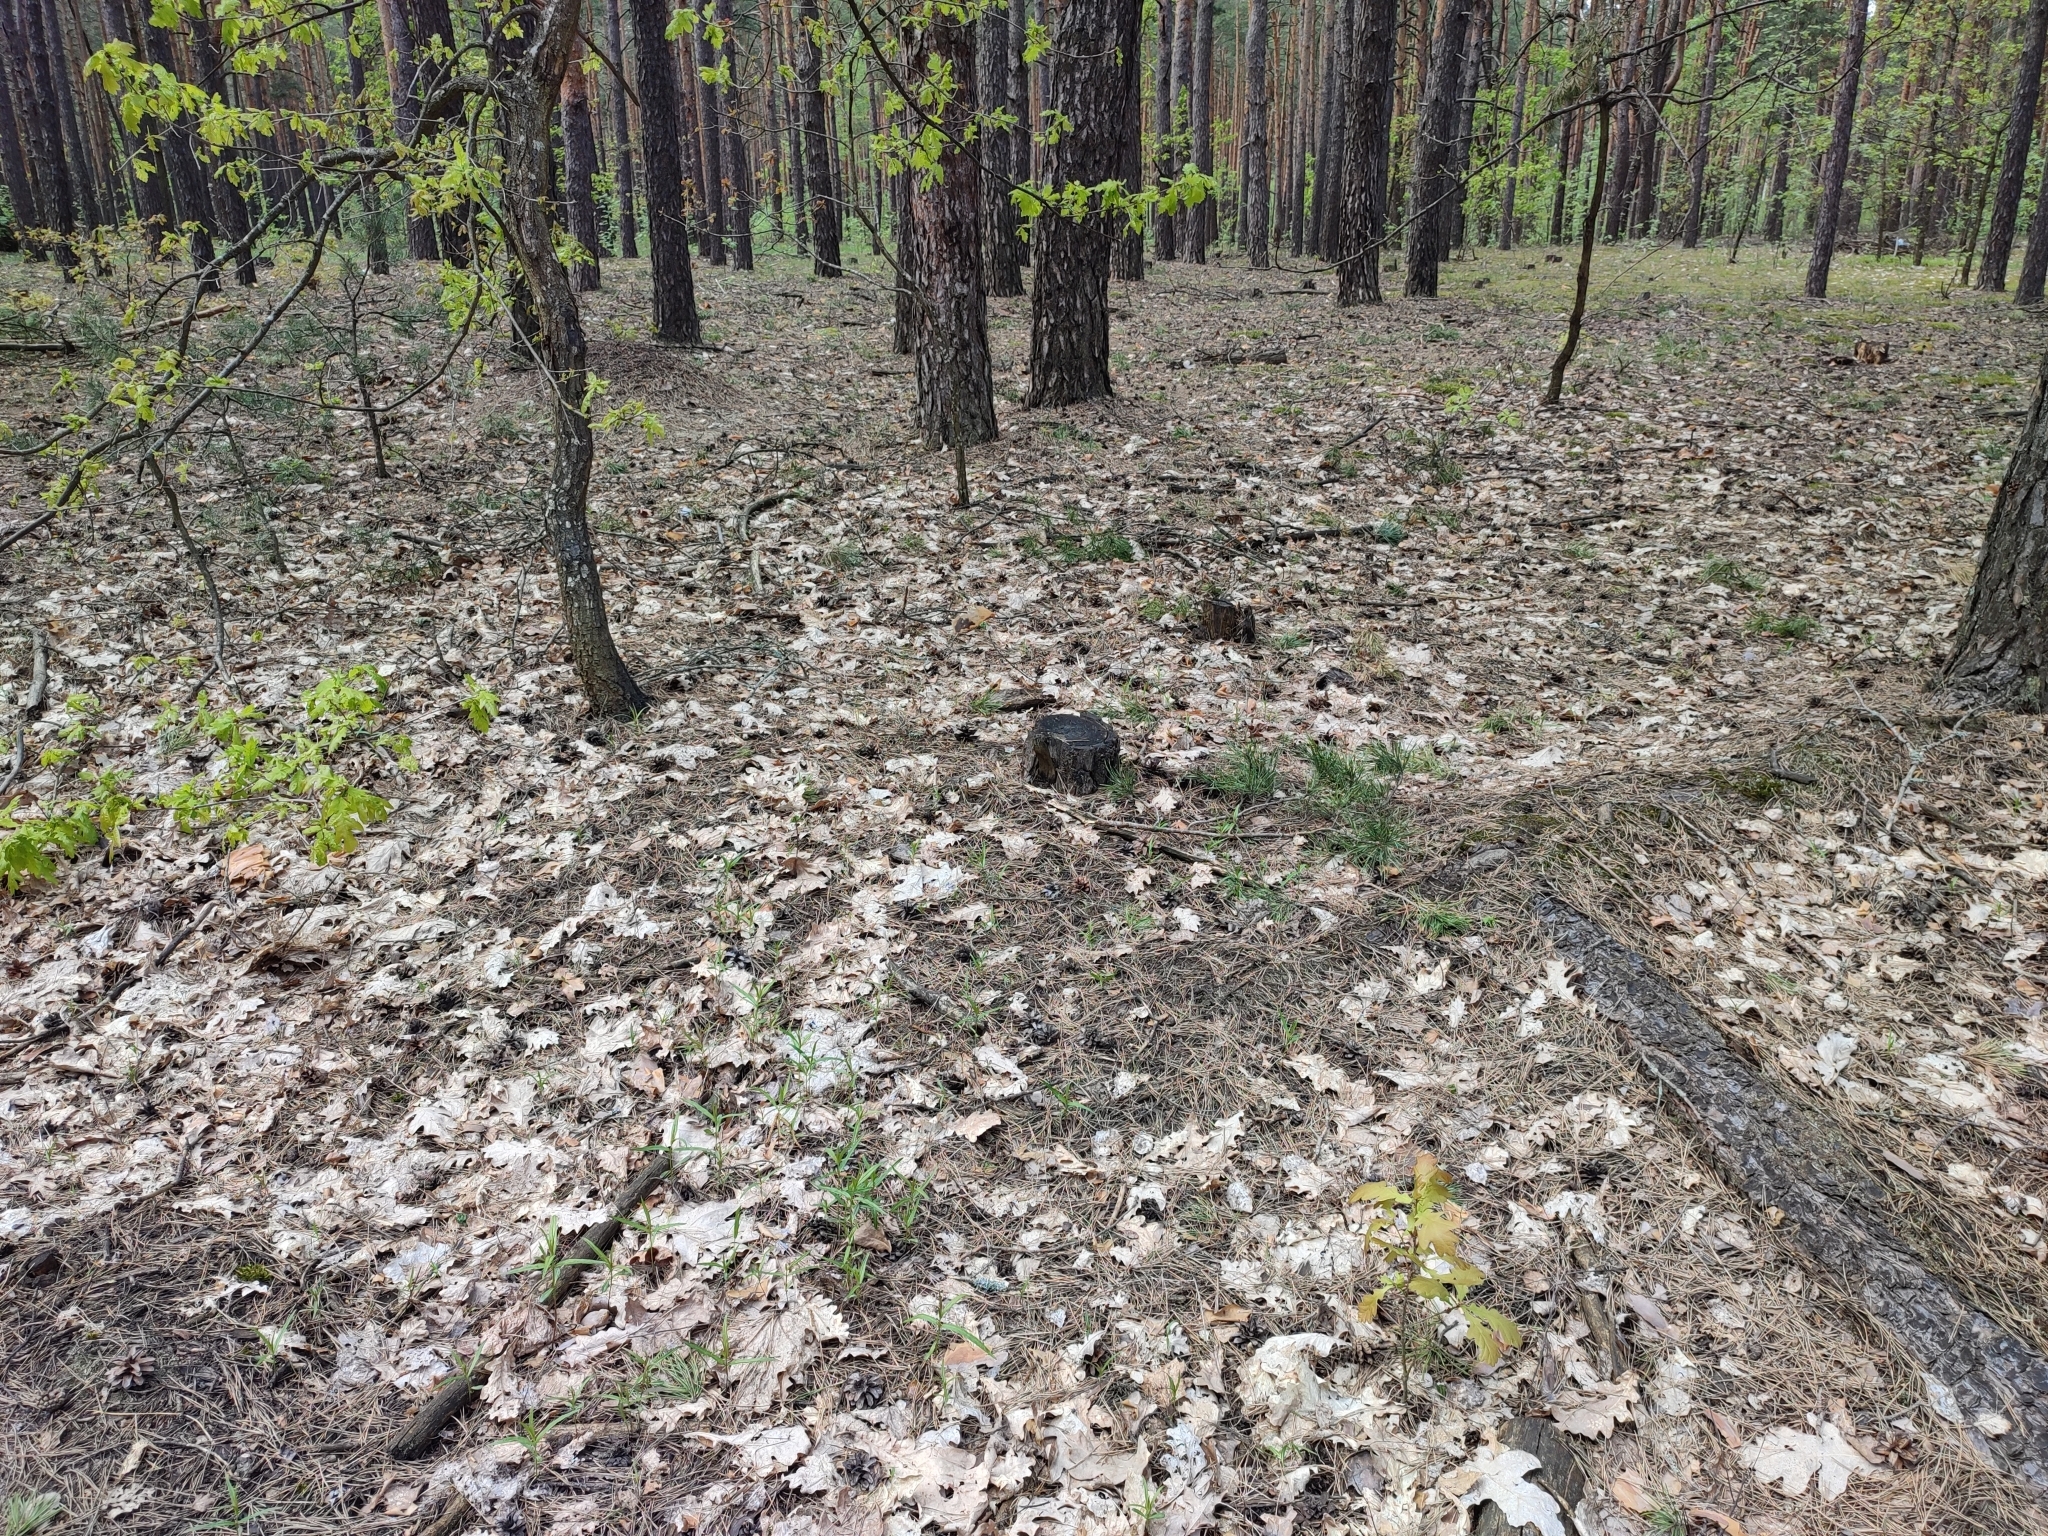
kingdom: Plantae
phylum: Tracheophyta
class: Magnoliopsida
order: Fagales
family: Fagaceae
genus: Quercus
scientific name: Quercus robur
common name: Pedunculate oak
